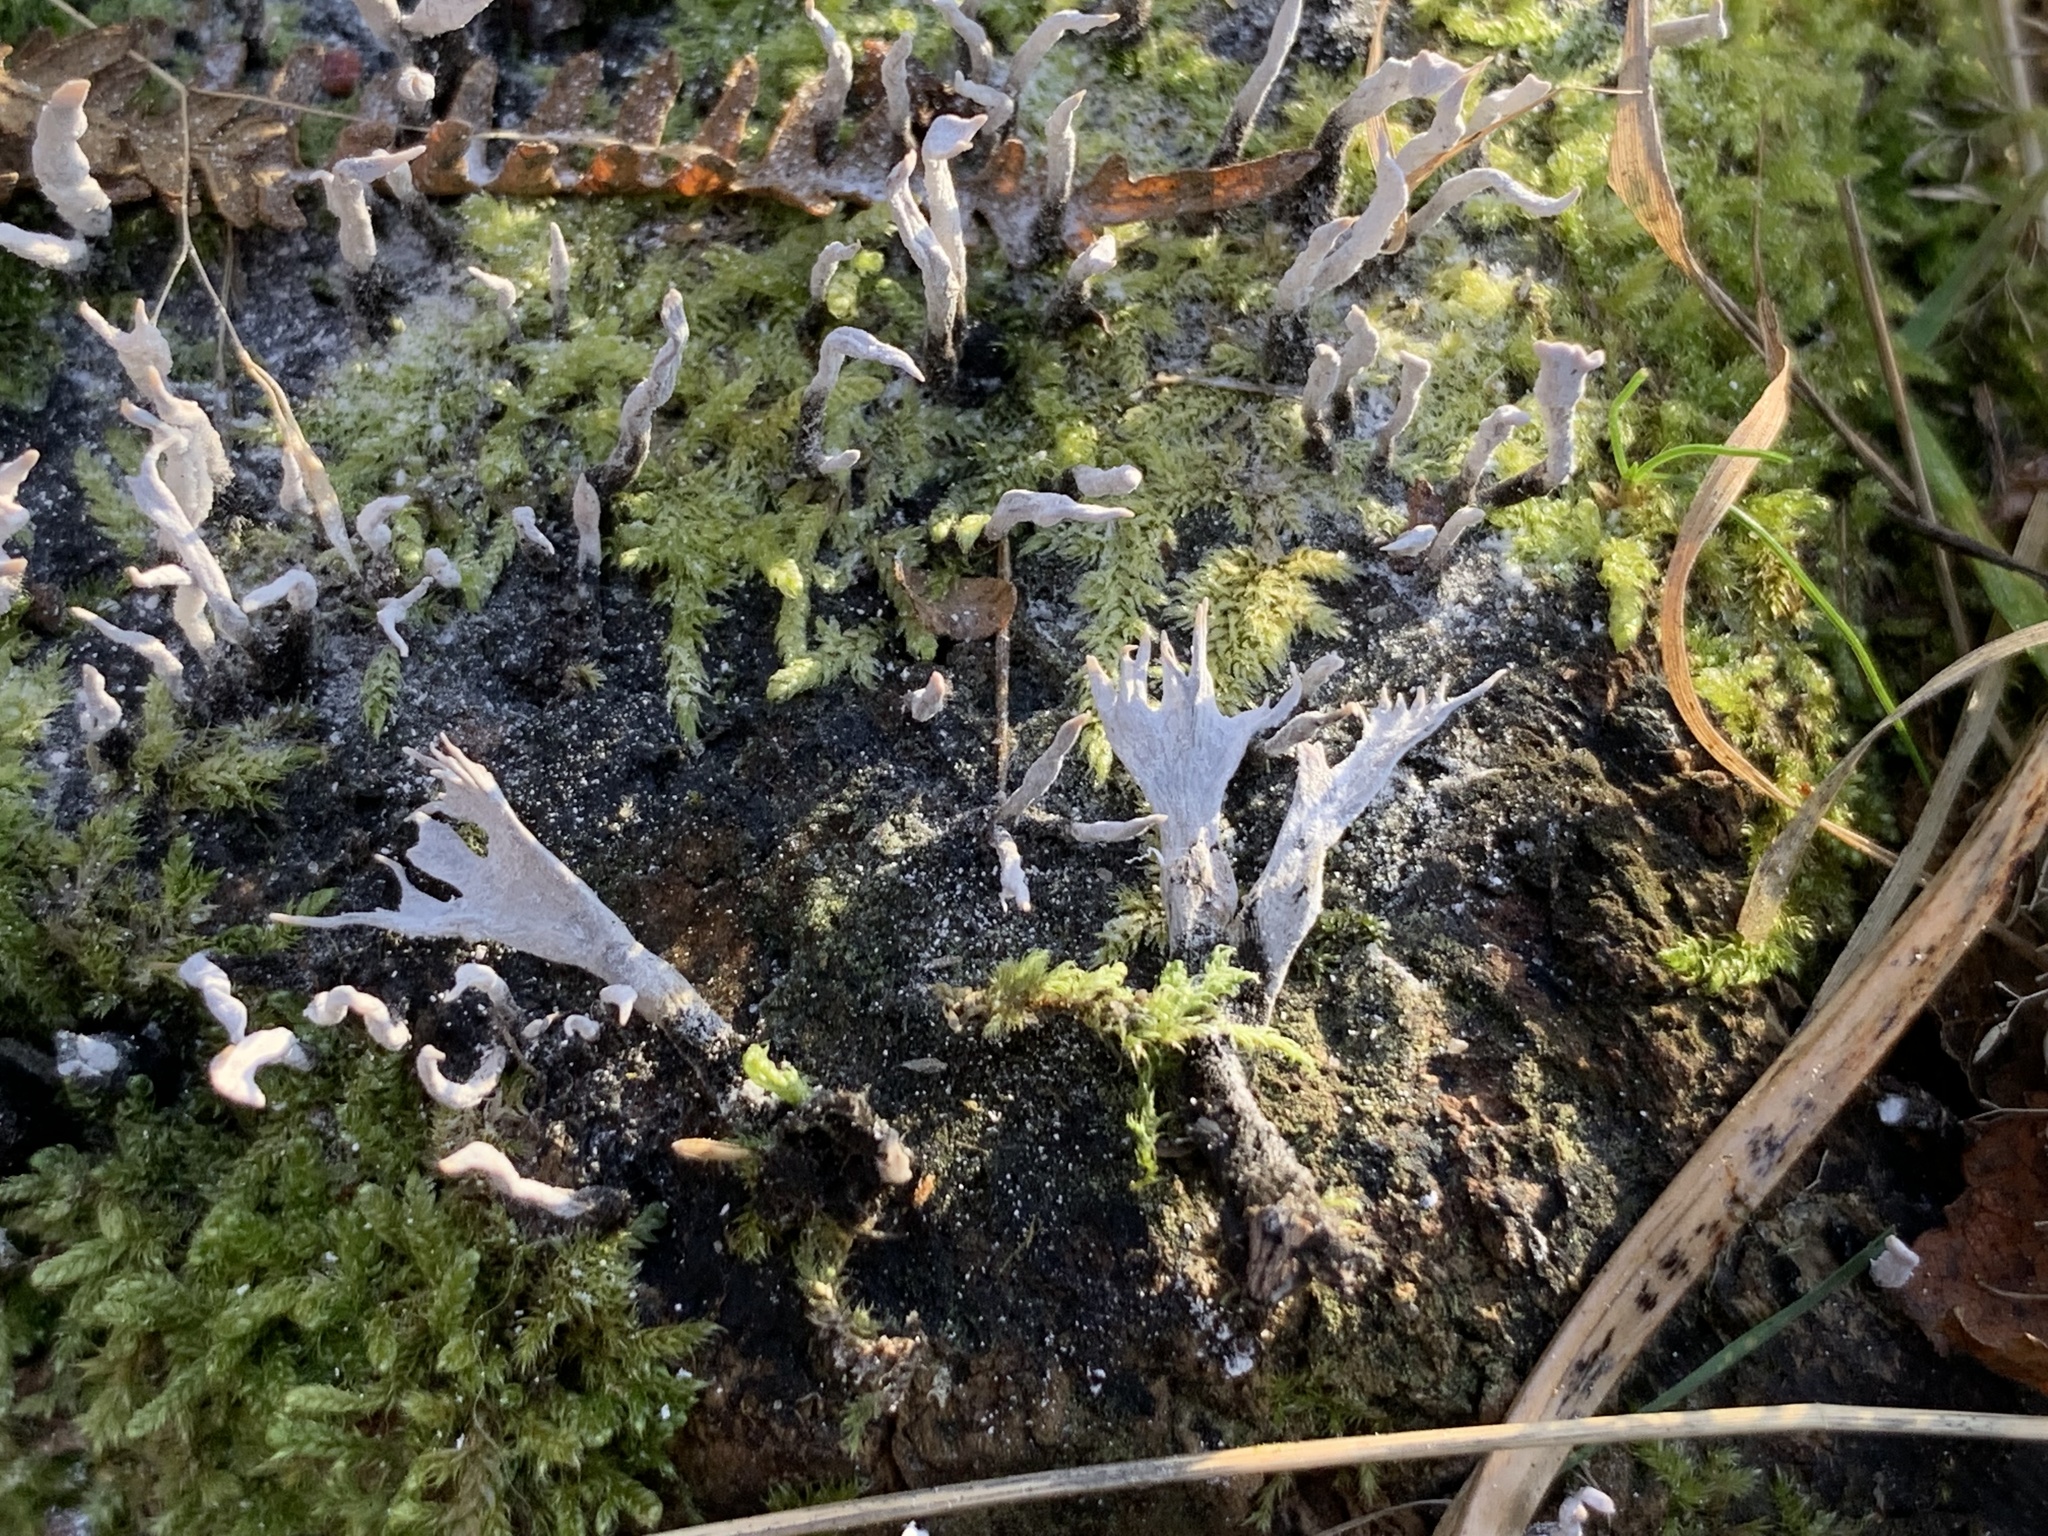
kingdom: Fungi
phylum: Ascomycota
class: Sordariomycetes
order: Xylariales
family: Xylariaceae
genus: Xylaria
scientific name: Xylaria hypoxylon
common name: Candle-snuff fungus
